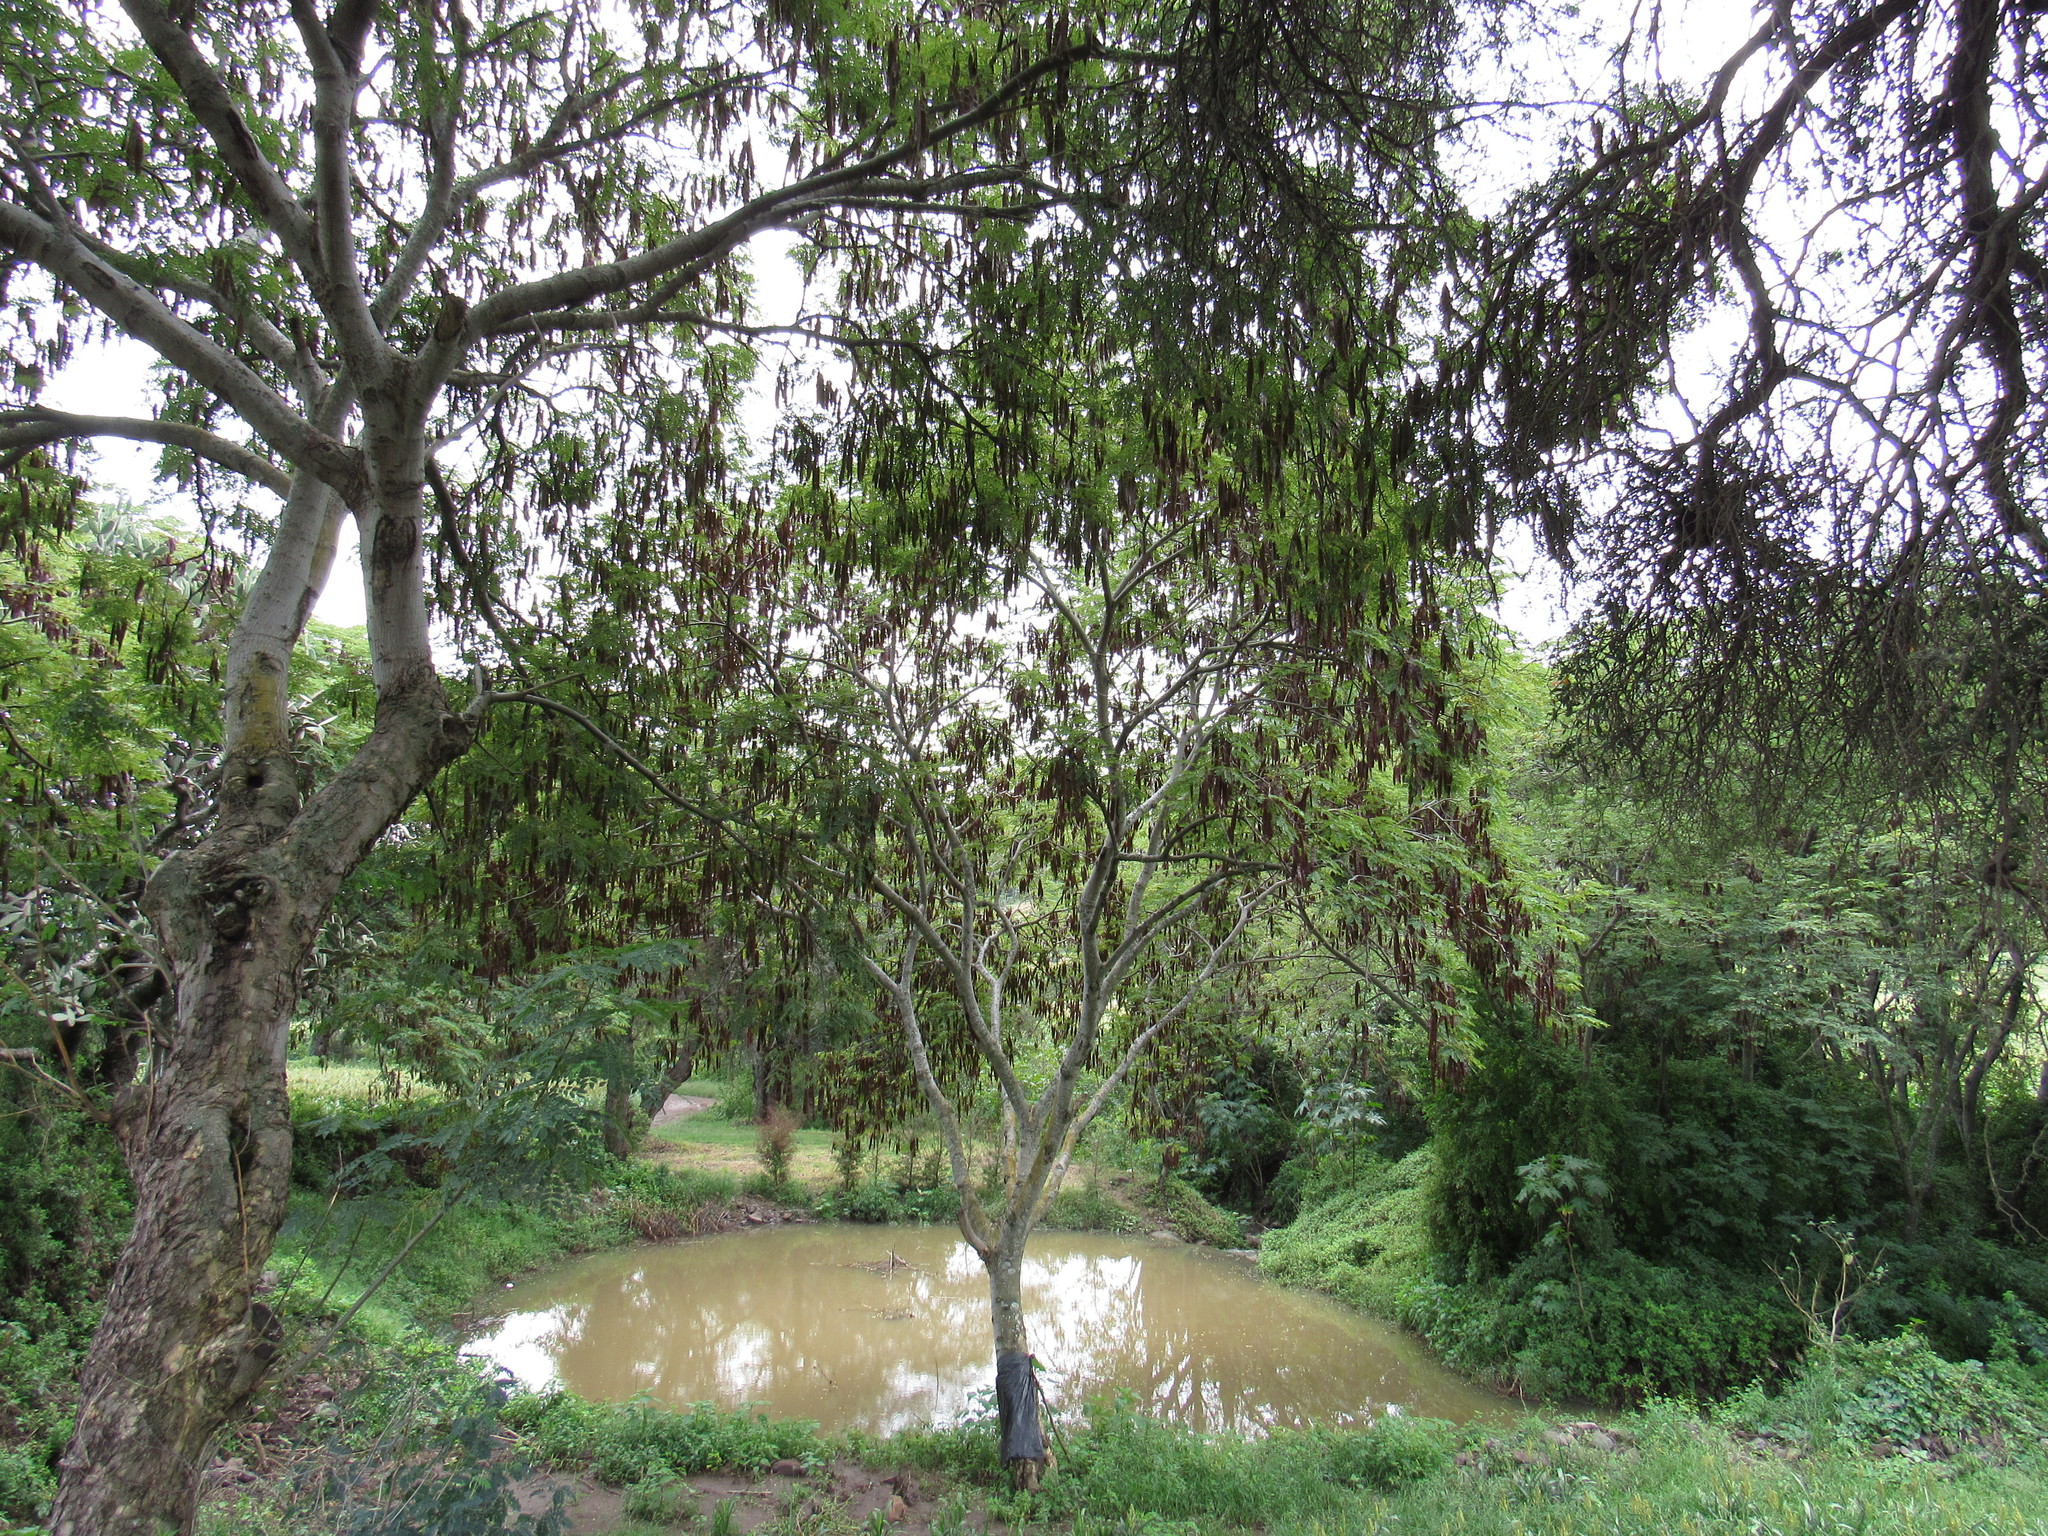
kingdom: Plantae
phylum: Tracheophyta
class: Magnoliopsida
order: Fabales
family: Fabaceae
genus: Lysiloma
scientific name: Lysiloma divaricatum
